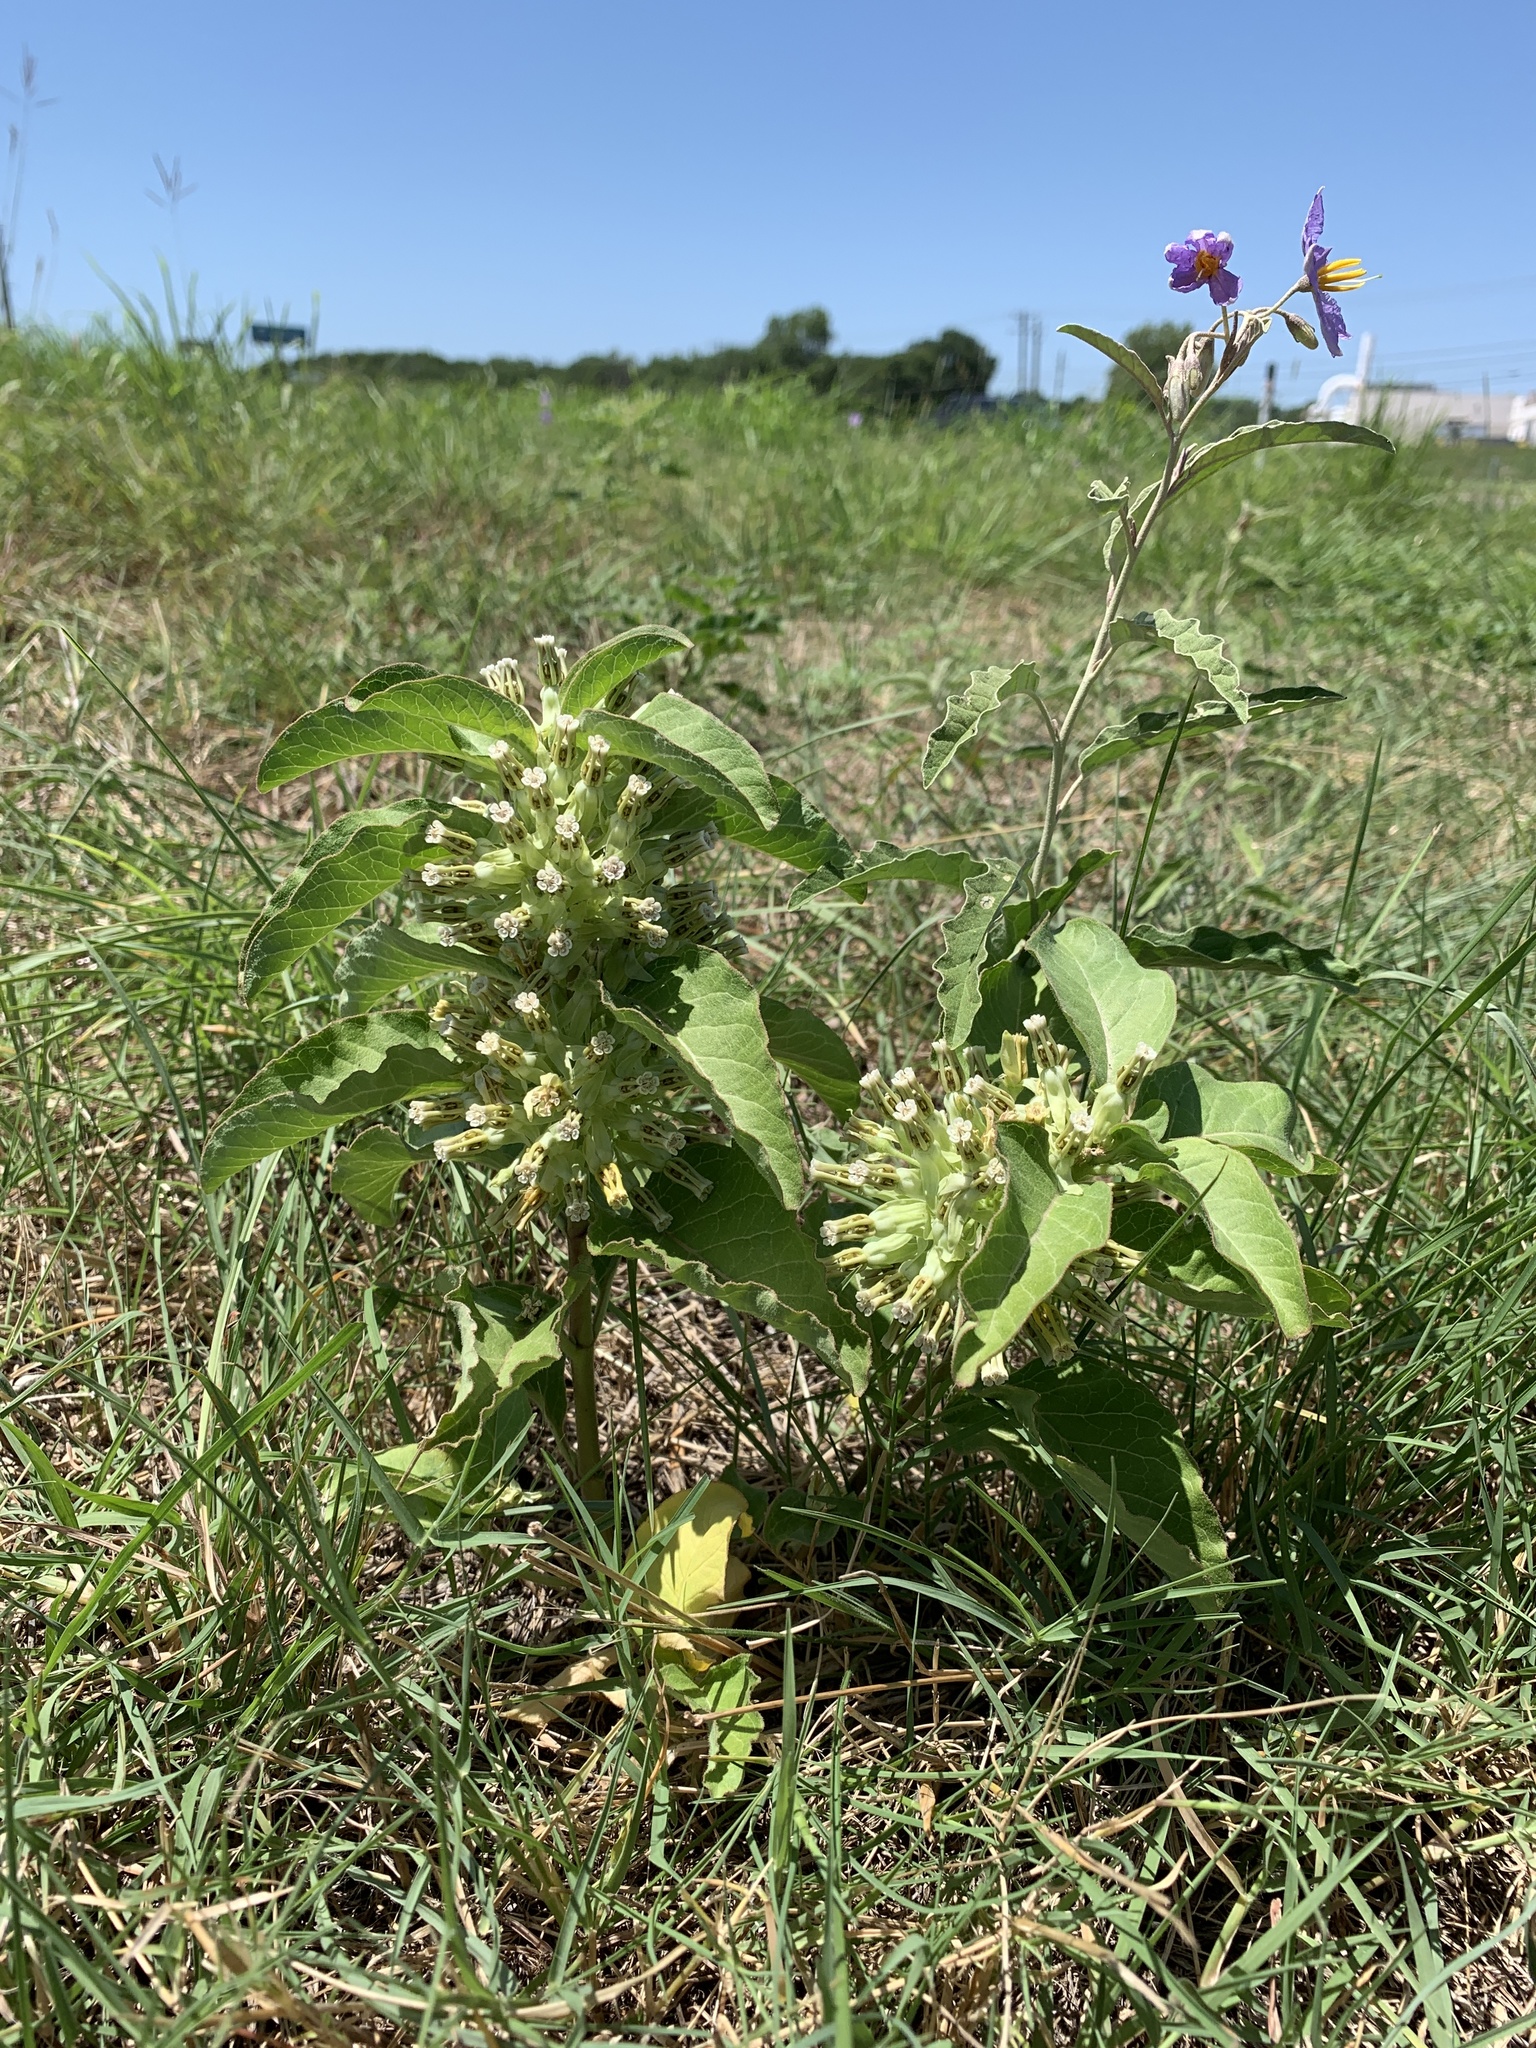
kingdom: Plantae
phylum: Tracheophyta
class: Magnoliopsida
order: Gentianales
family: Apocynaceae
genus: Asclepias
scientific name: Asclepias oenotheroides
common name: Zizotes milkweed
